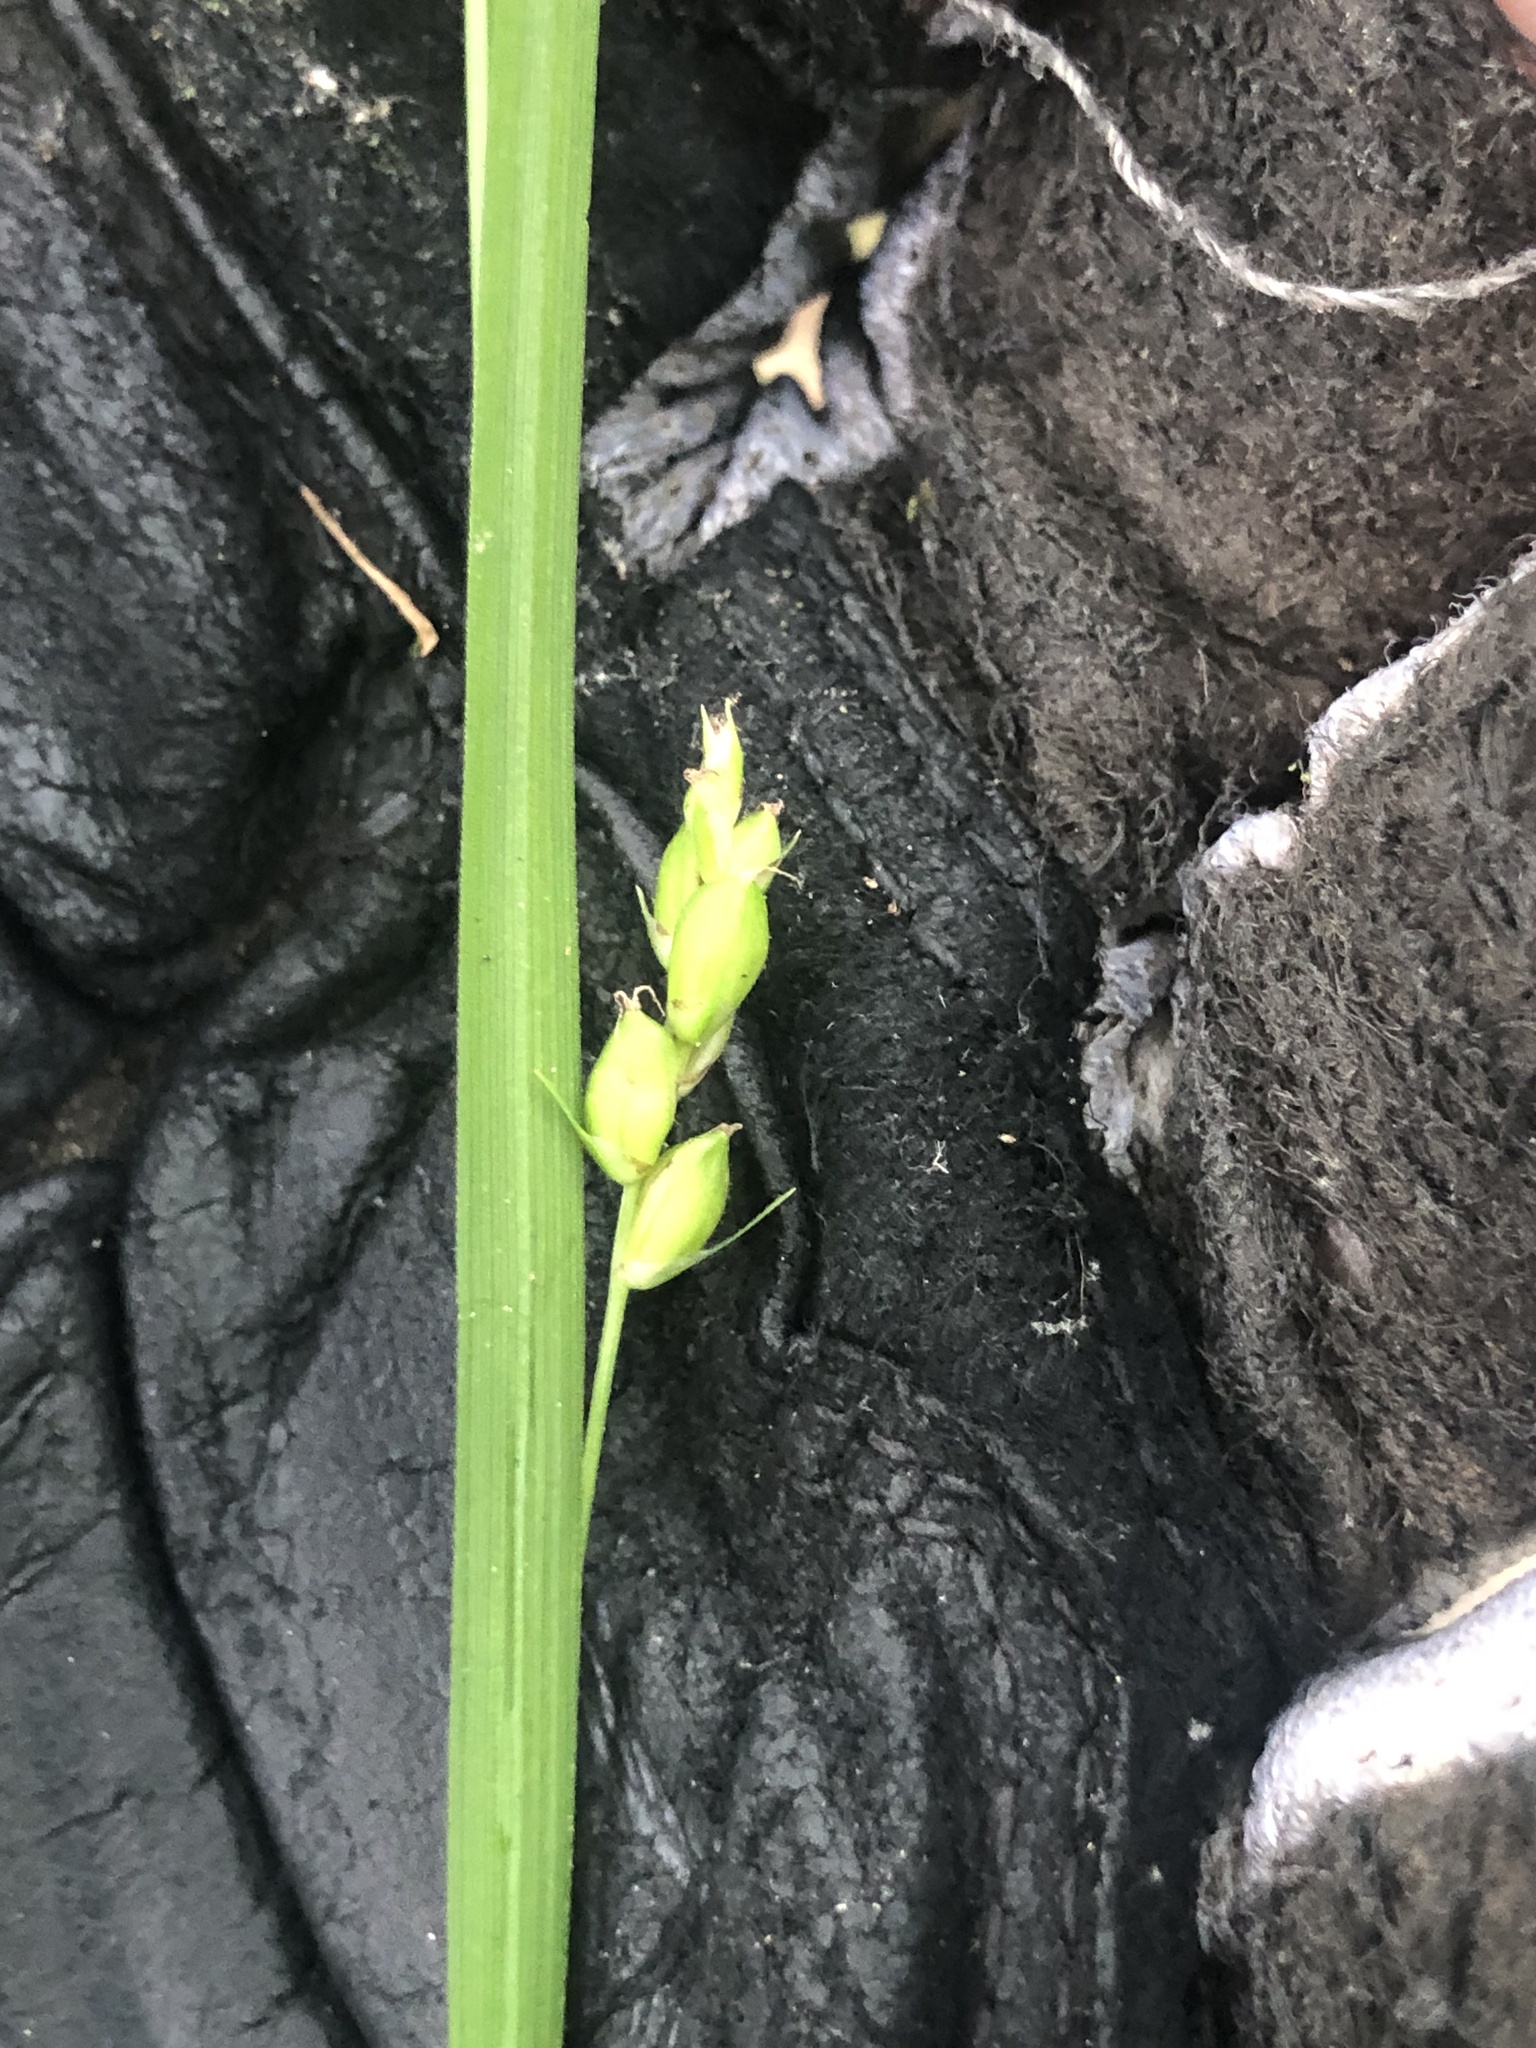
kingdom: Plantae
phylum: Tracheophyta
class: Liliopsida
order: Poales
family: Cyperaceae
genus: Carex
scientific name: Carex corrugata
